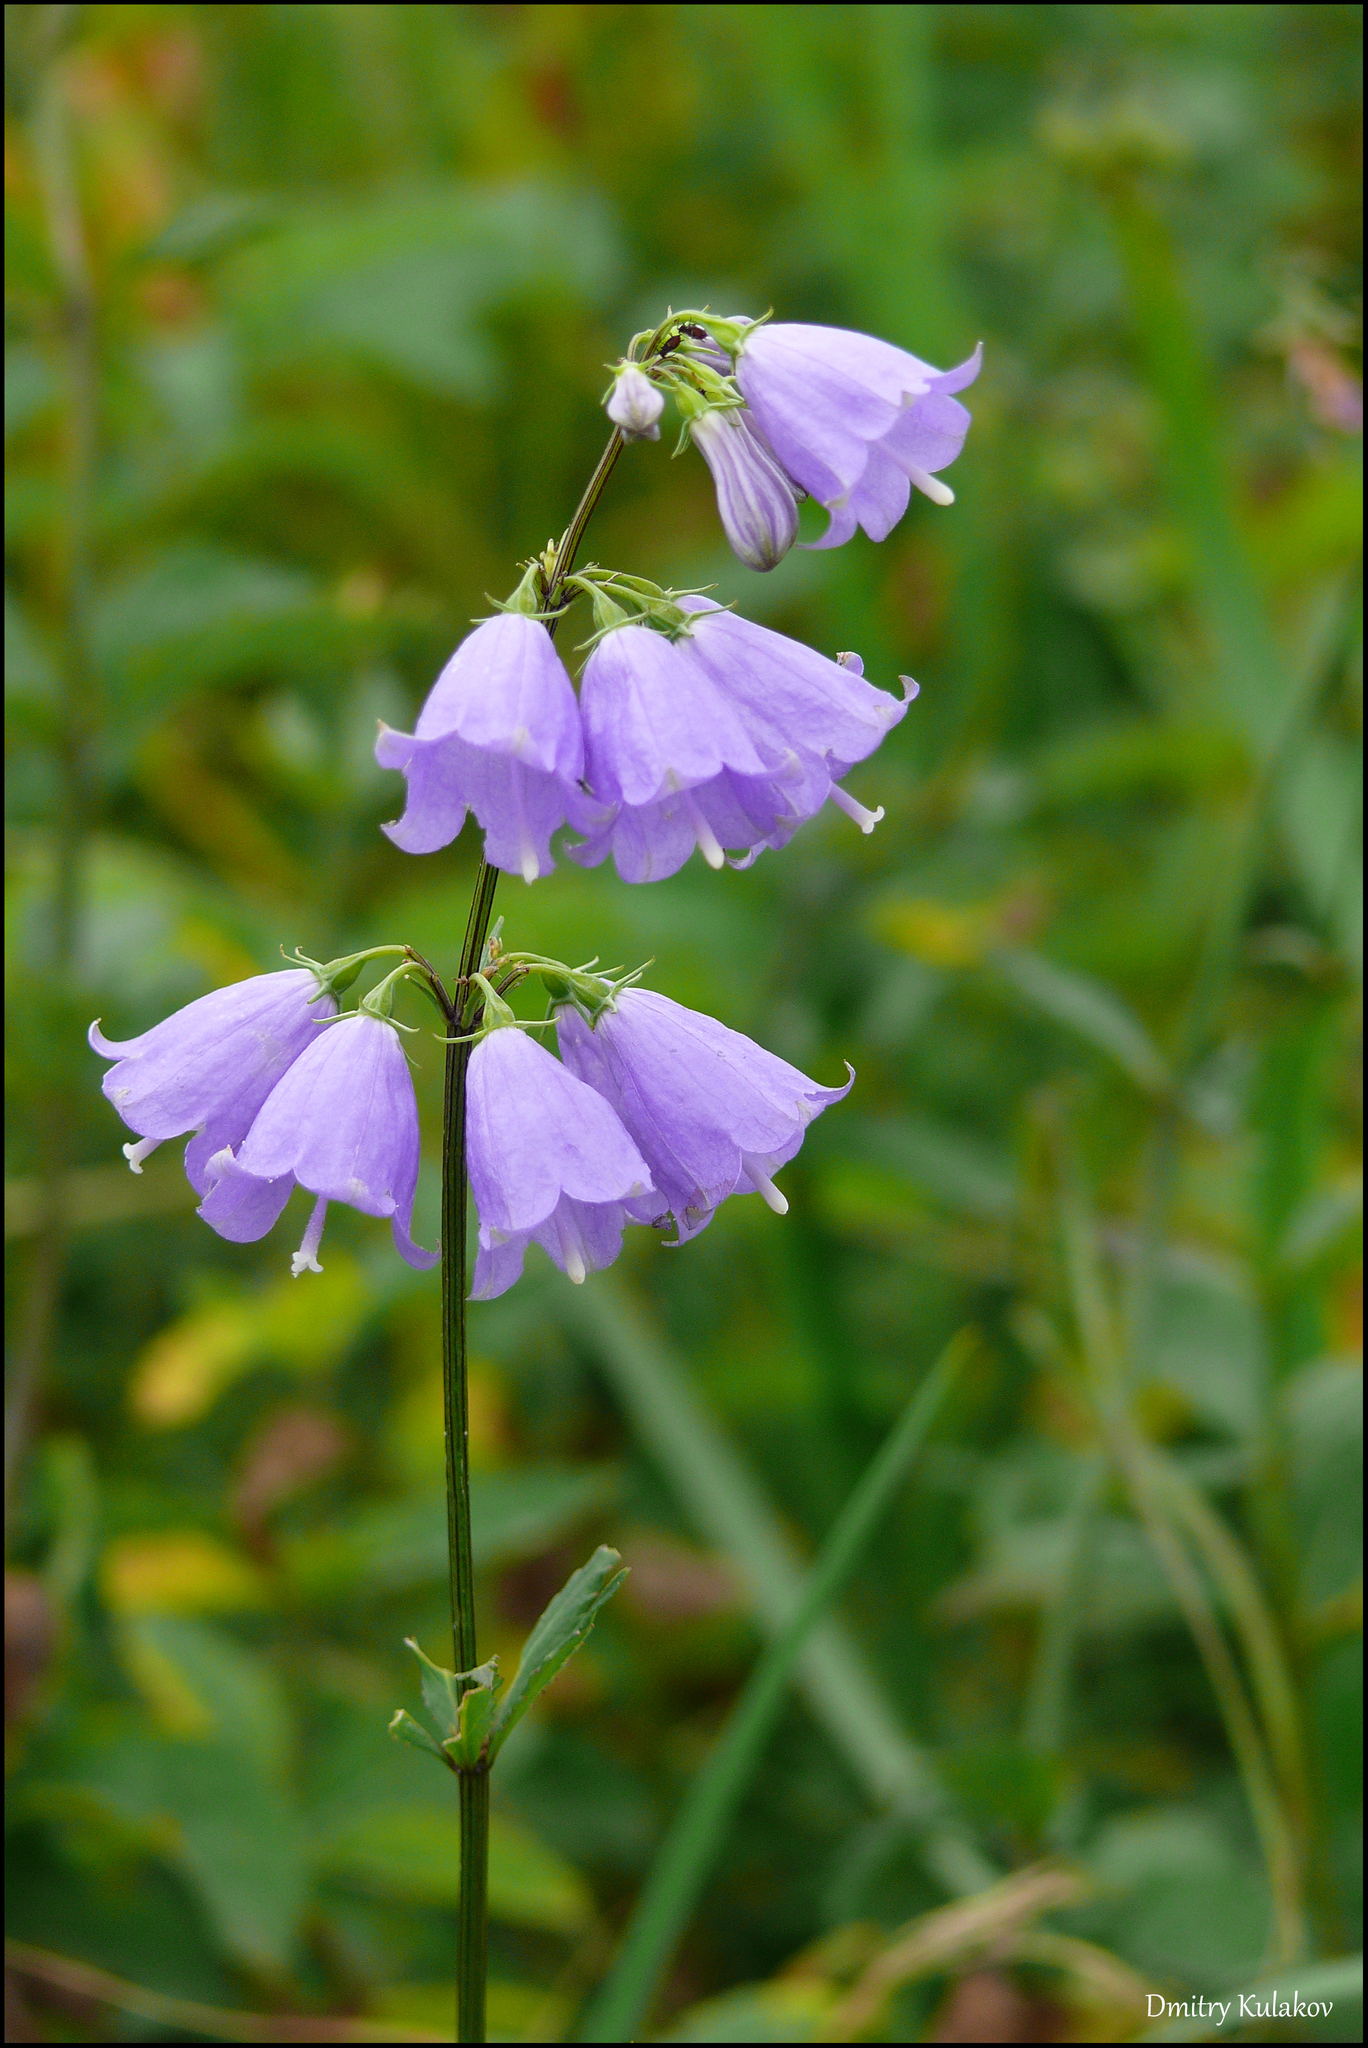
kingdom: Plantae
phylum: Tracheophyta
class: Magnoliopsida
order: Asterales
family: Campanulaceae
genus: Adenophora
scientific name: Adenophora triphylla
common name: Giant-bellflower
